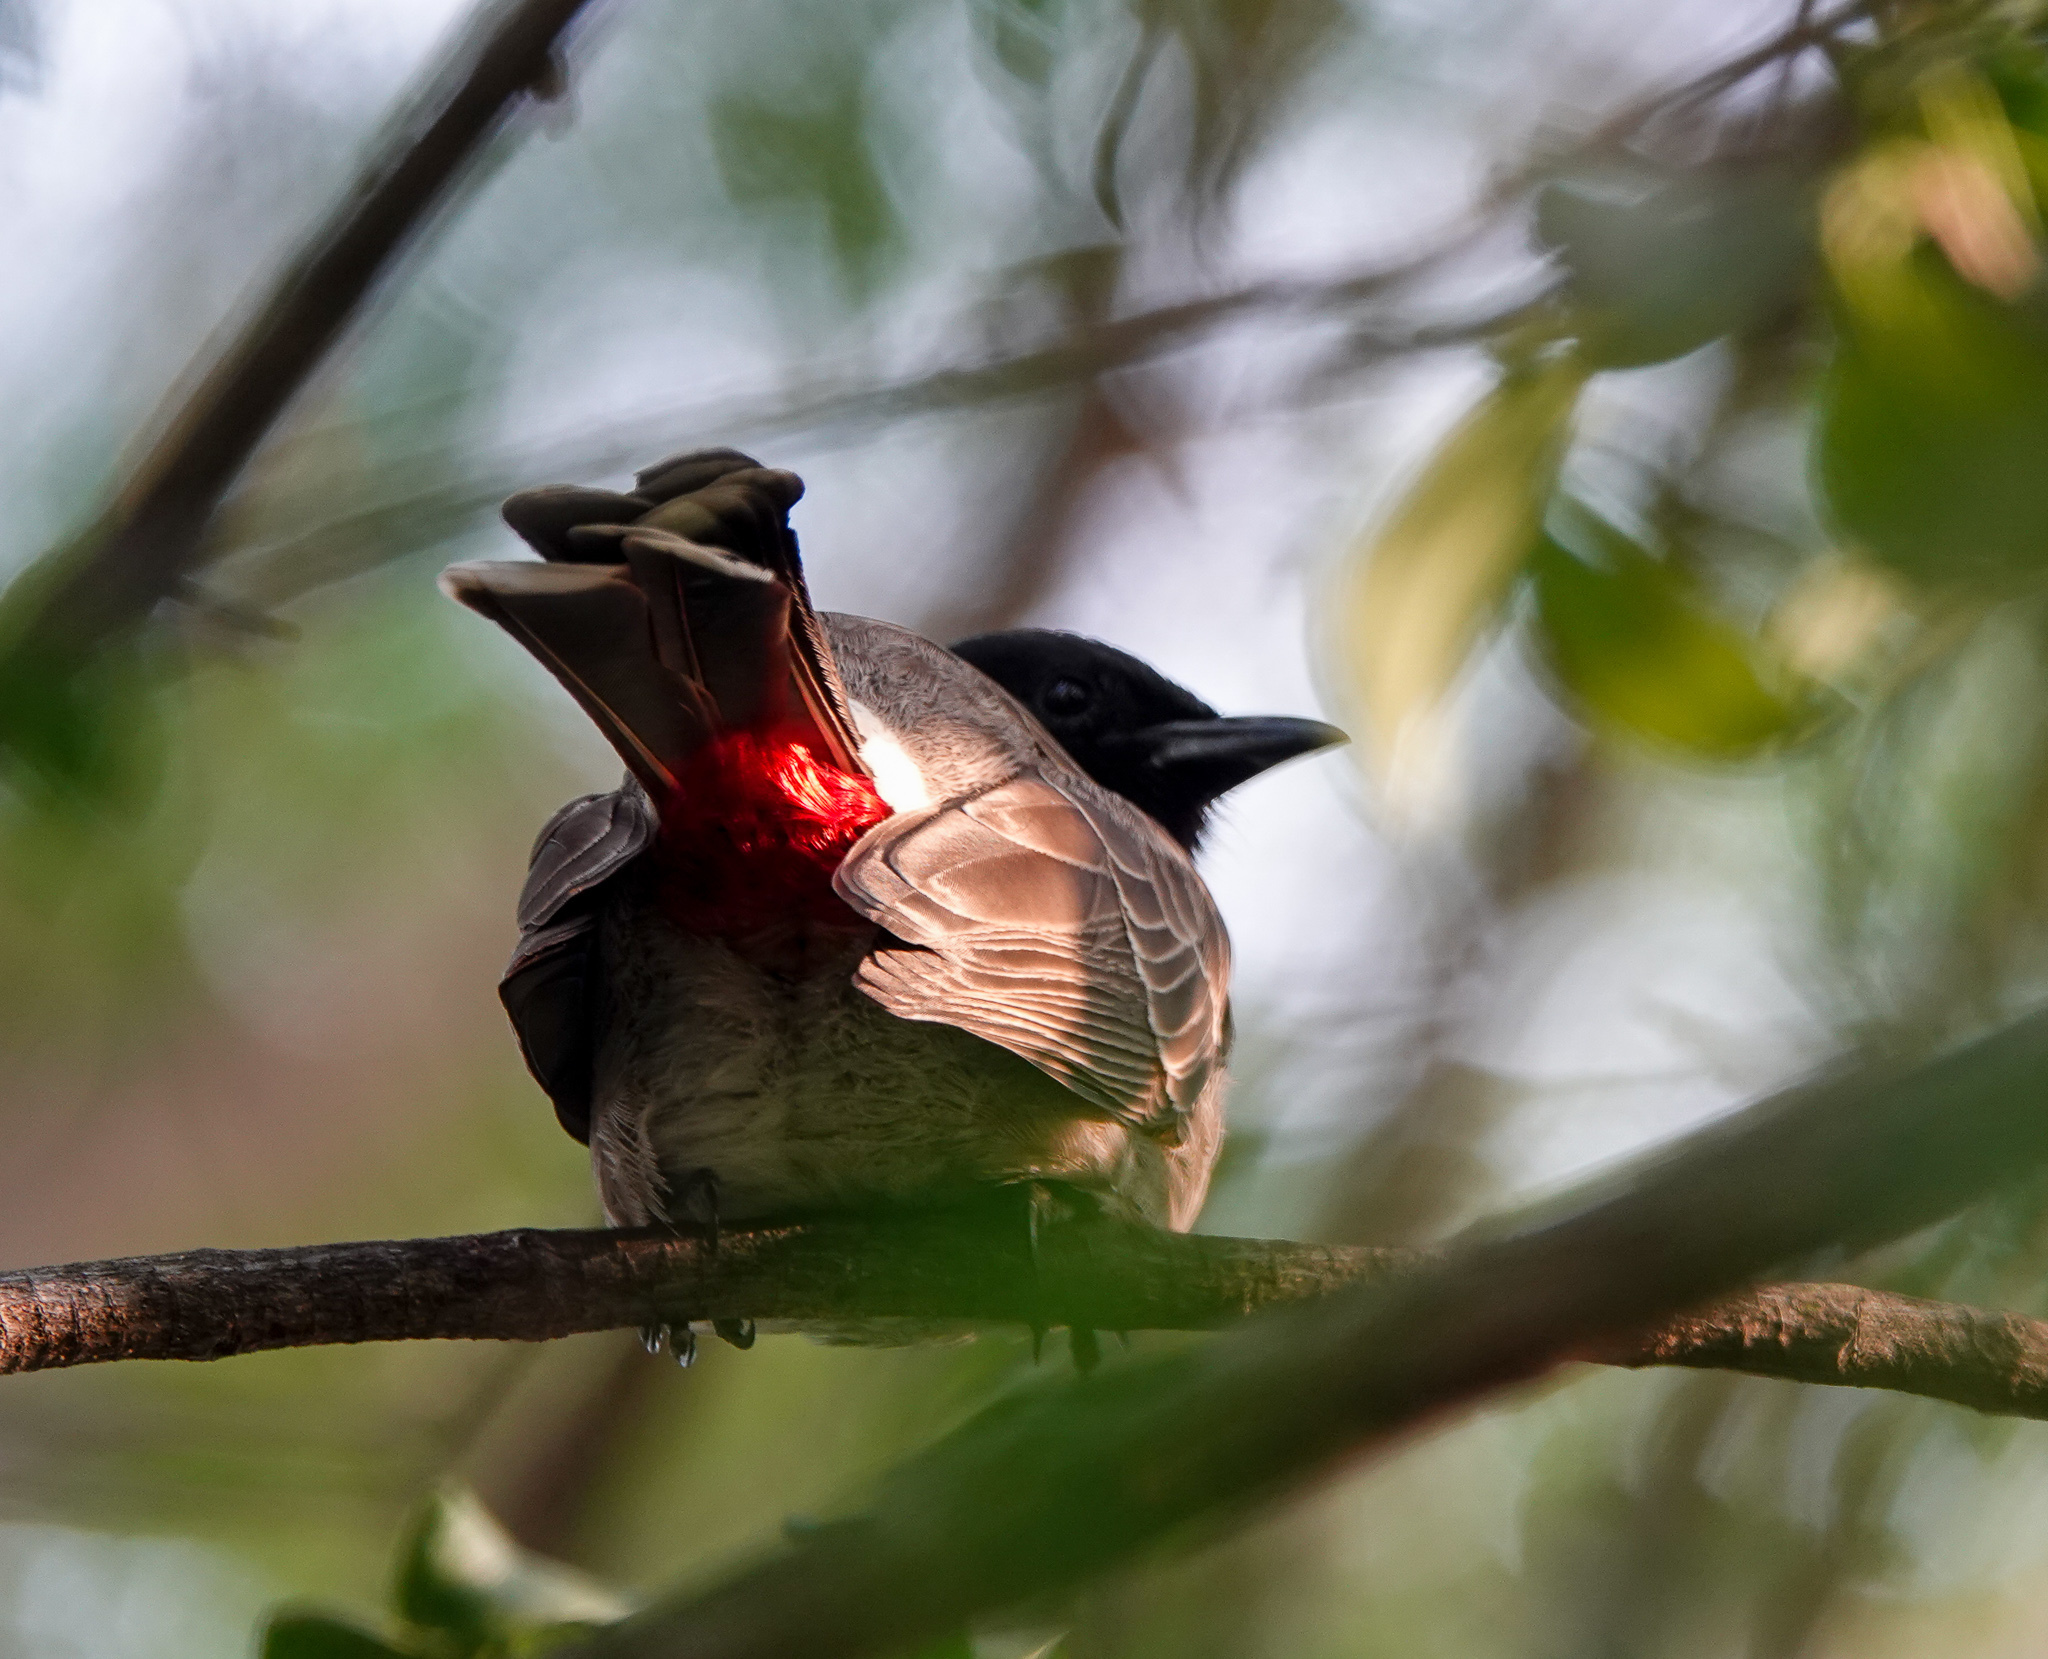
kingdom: Animalia
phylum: Chordata
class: Aves
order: Passeriformes
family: Pycnonotidae
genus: Pycnonotus
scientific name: Pycnonotus cafer
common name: Red-vented bulbul
